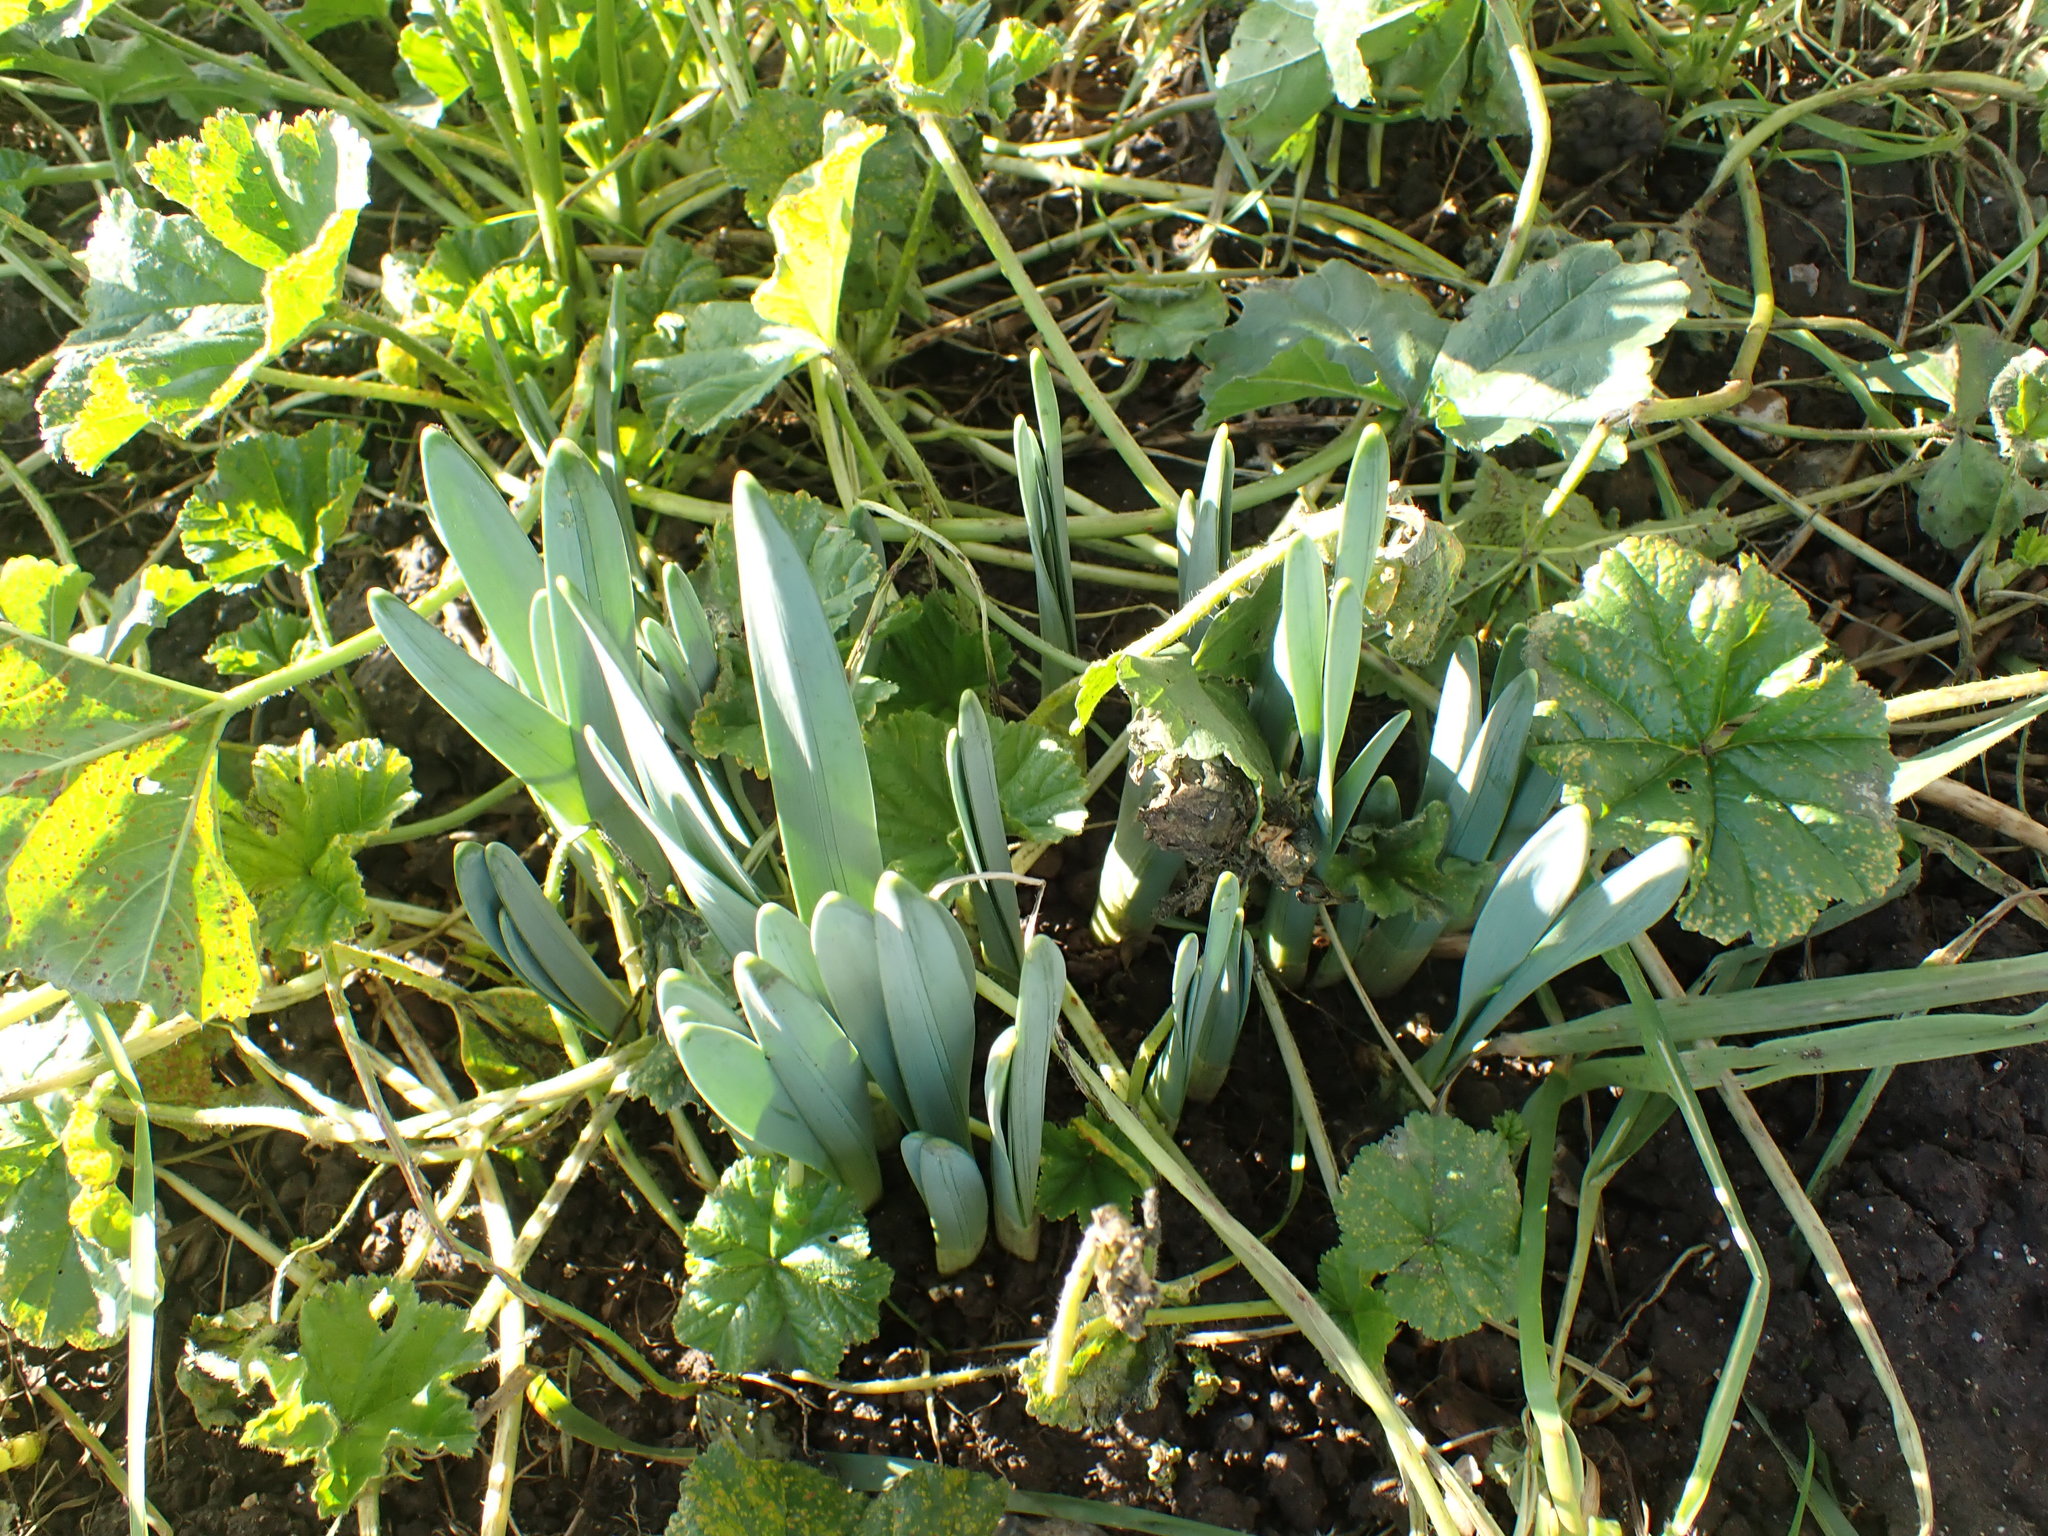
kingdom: Plantae
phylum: Tracheophyta
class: Liliopsida
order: Asparagales
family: Amaryllidaceae
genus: Galanthus
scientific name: Galanthus nivalis
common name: Snowdrop
